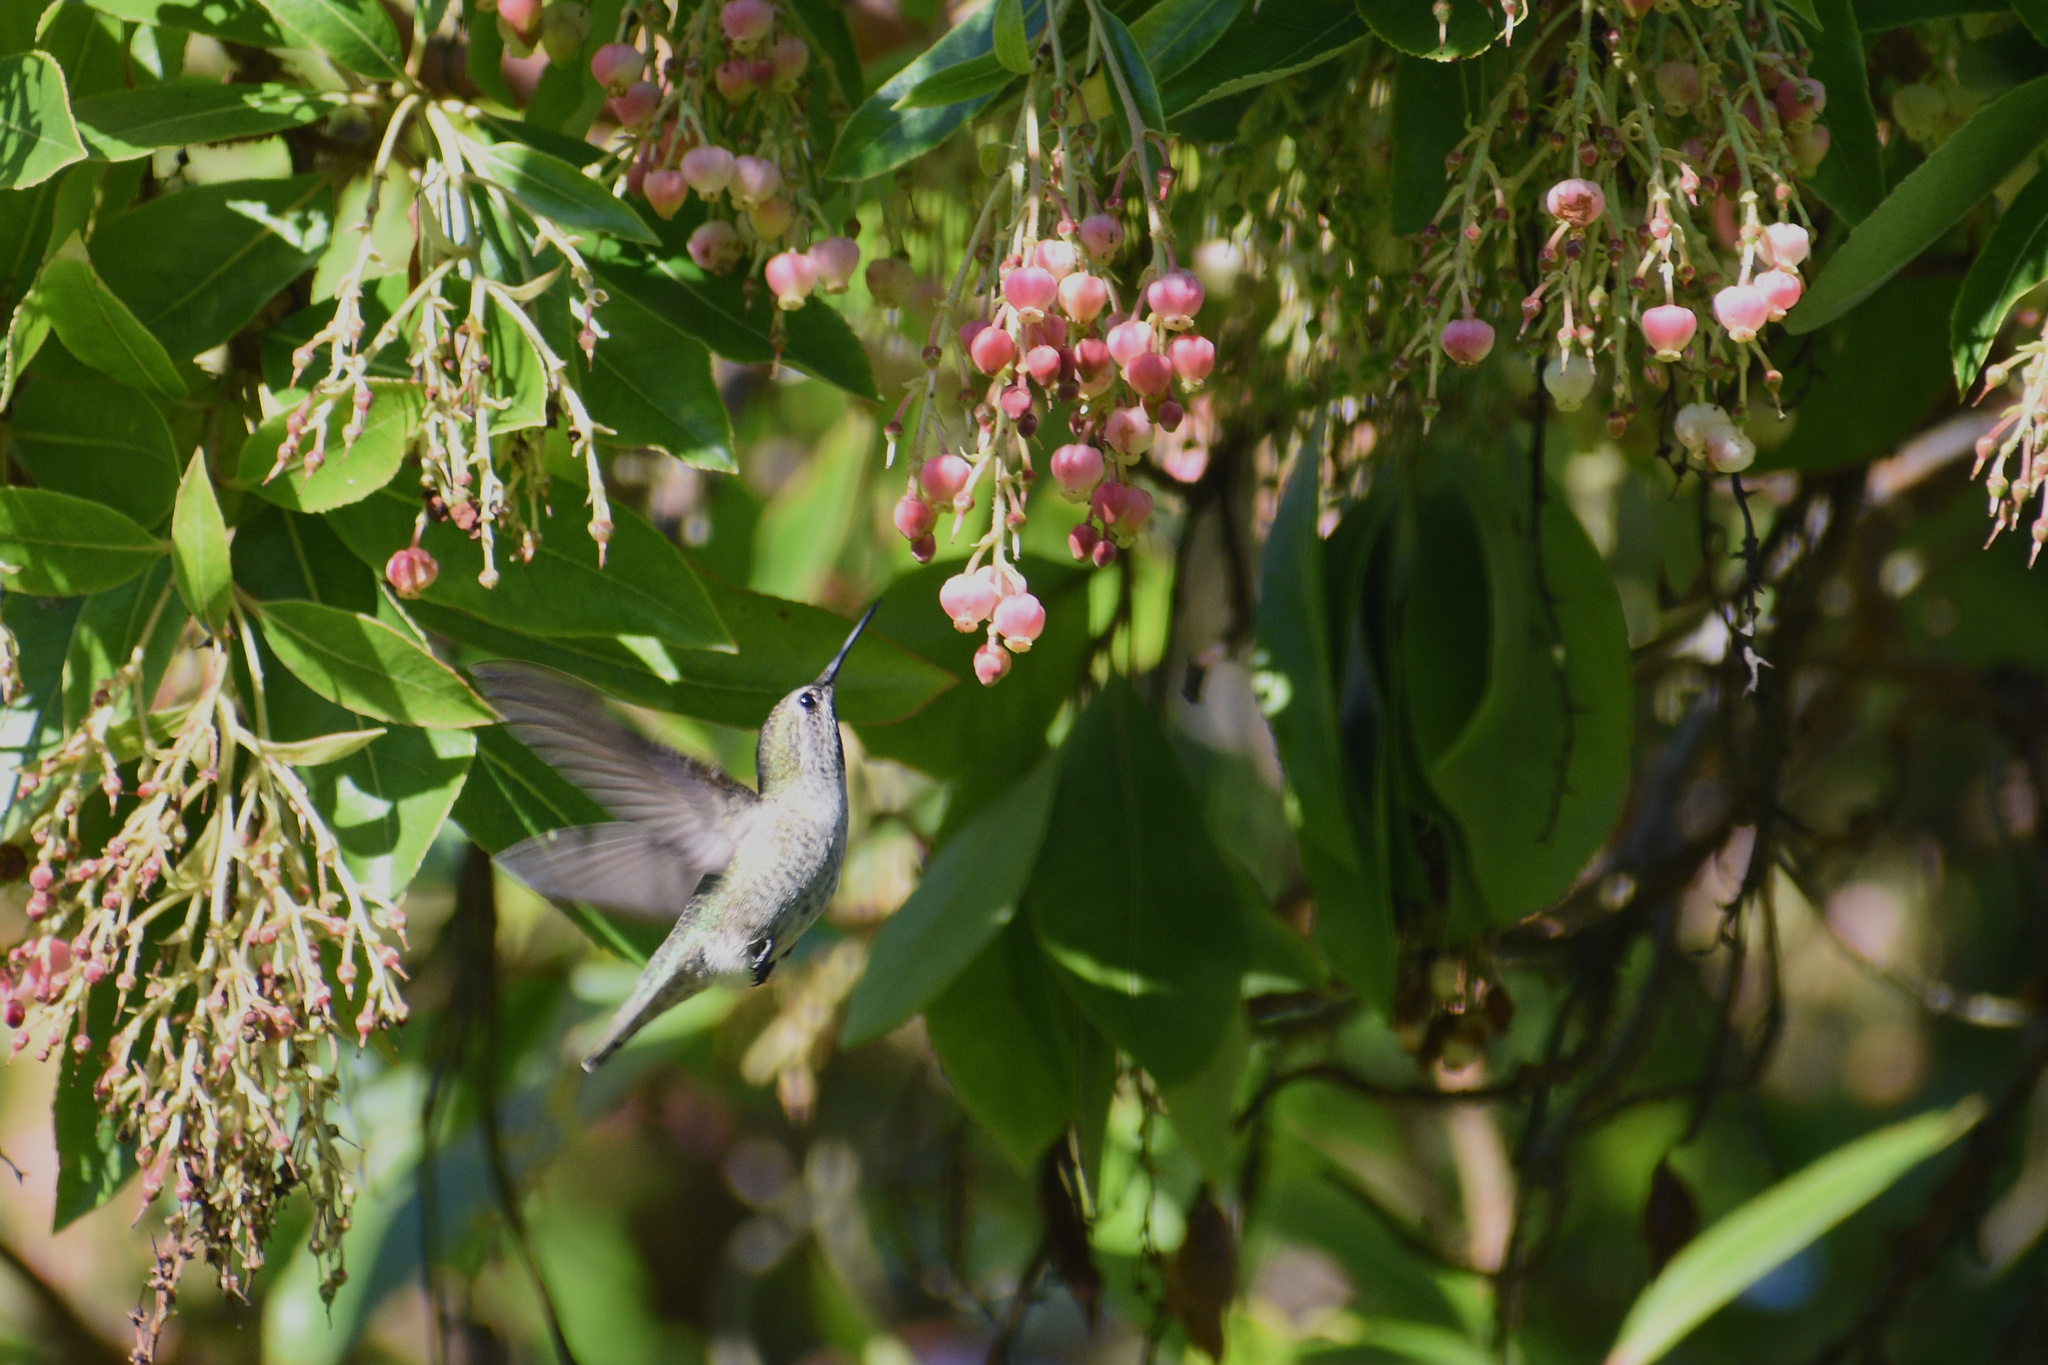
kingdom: Animalia
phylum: Chordata
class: Aves
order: Apodiformes
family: Trochilidae
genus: Calypte
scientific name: Calypte anna
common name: Anna's hummingbird
